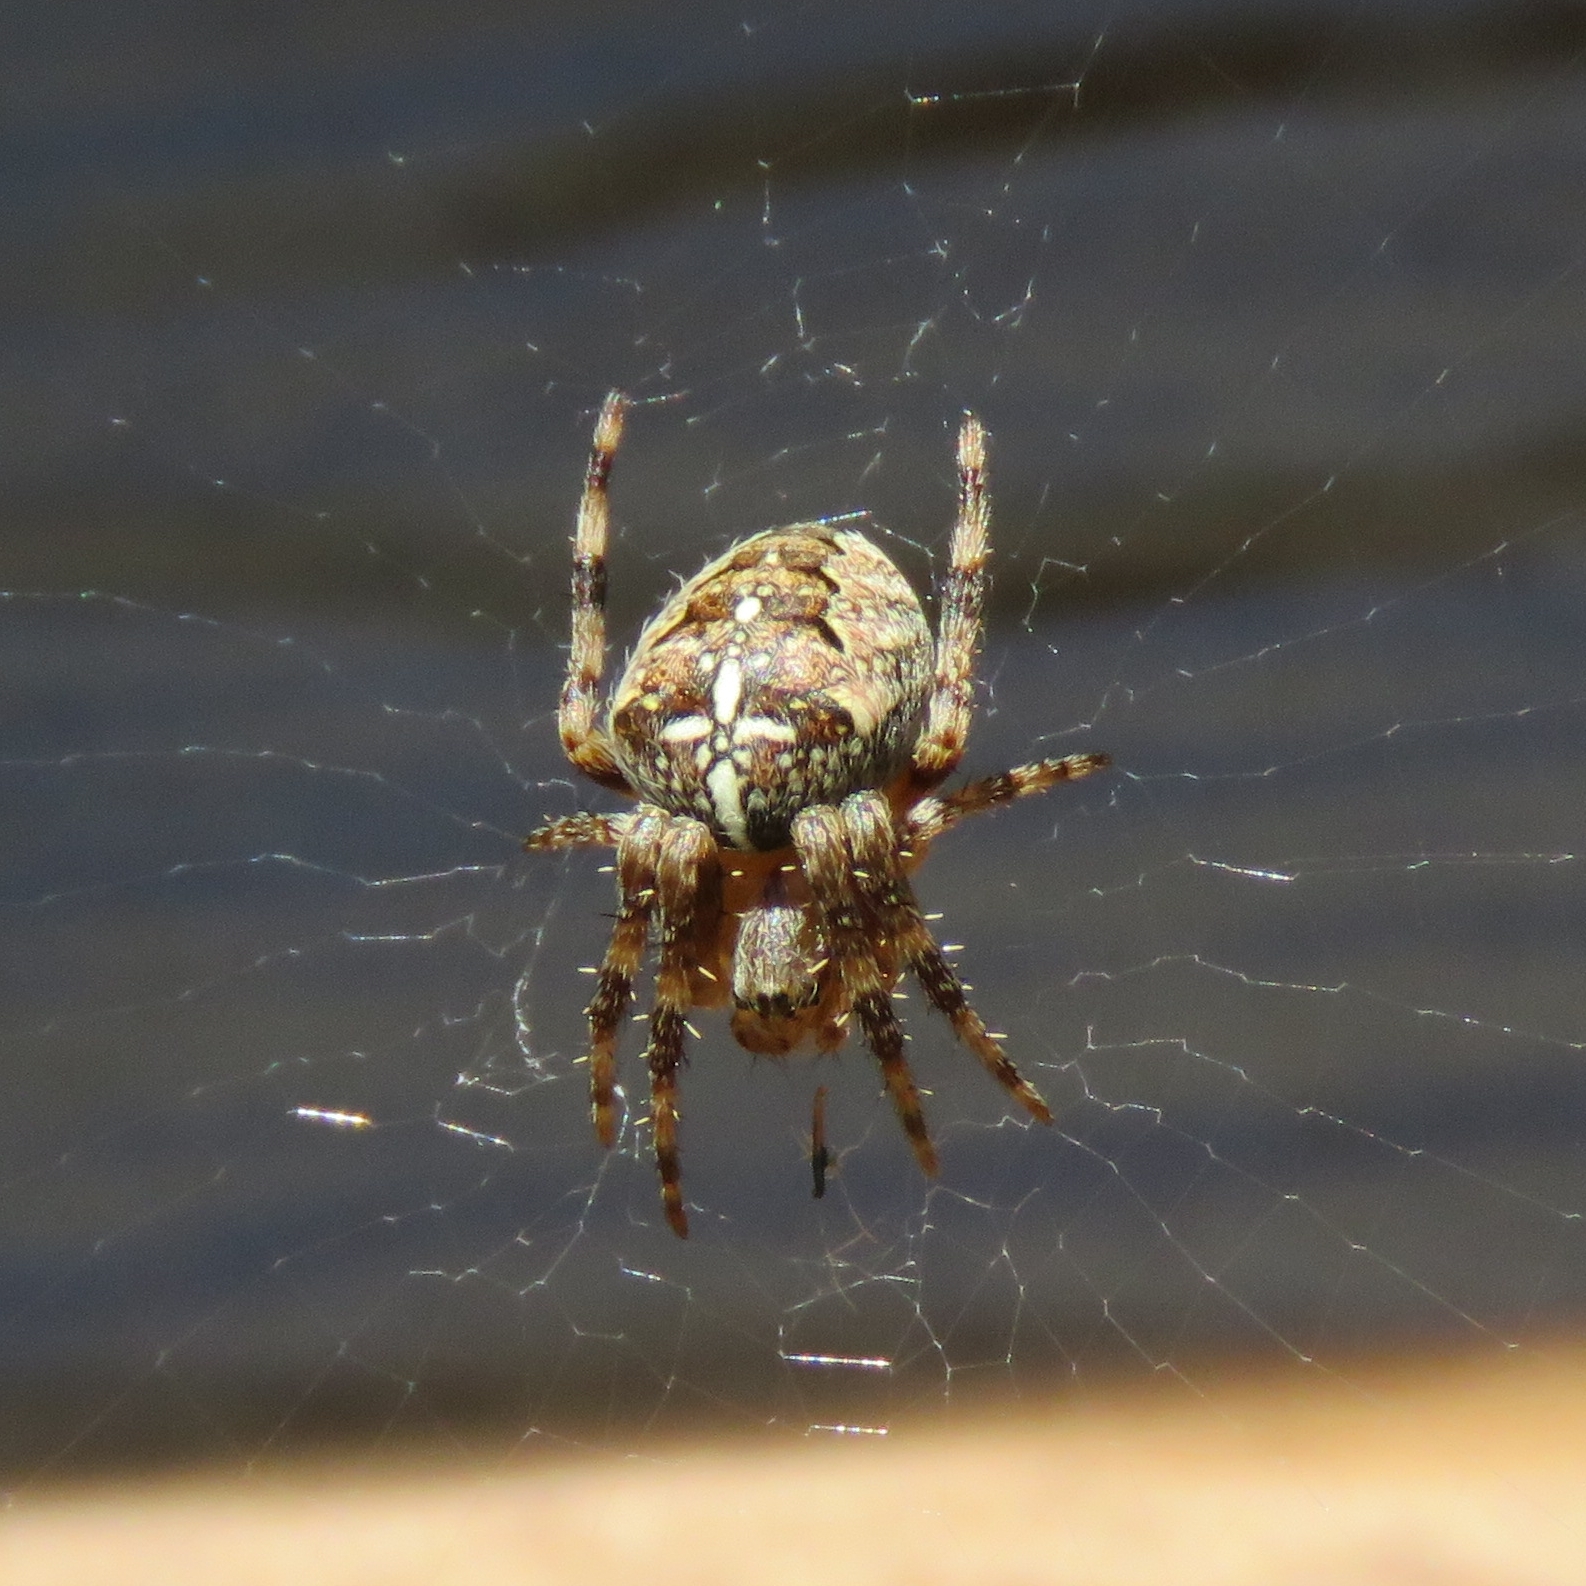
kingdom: Animalia
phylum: Arthropoda
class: Arachnida
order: Araneae
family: Araneidae
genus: Araneus
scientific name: Araneus diadematus
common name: Cross orbweaver
